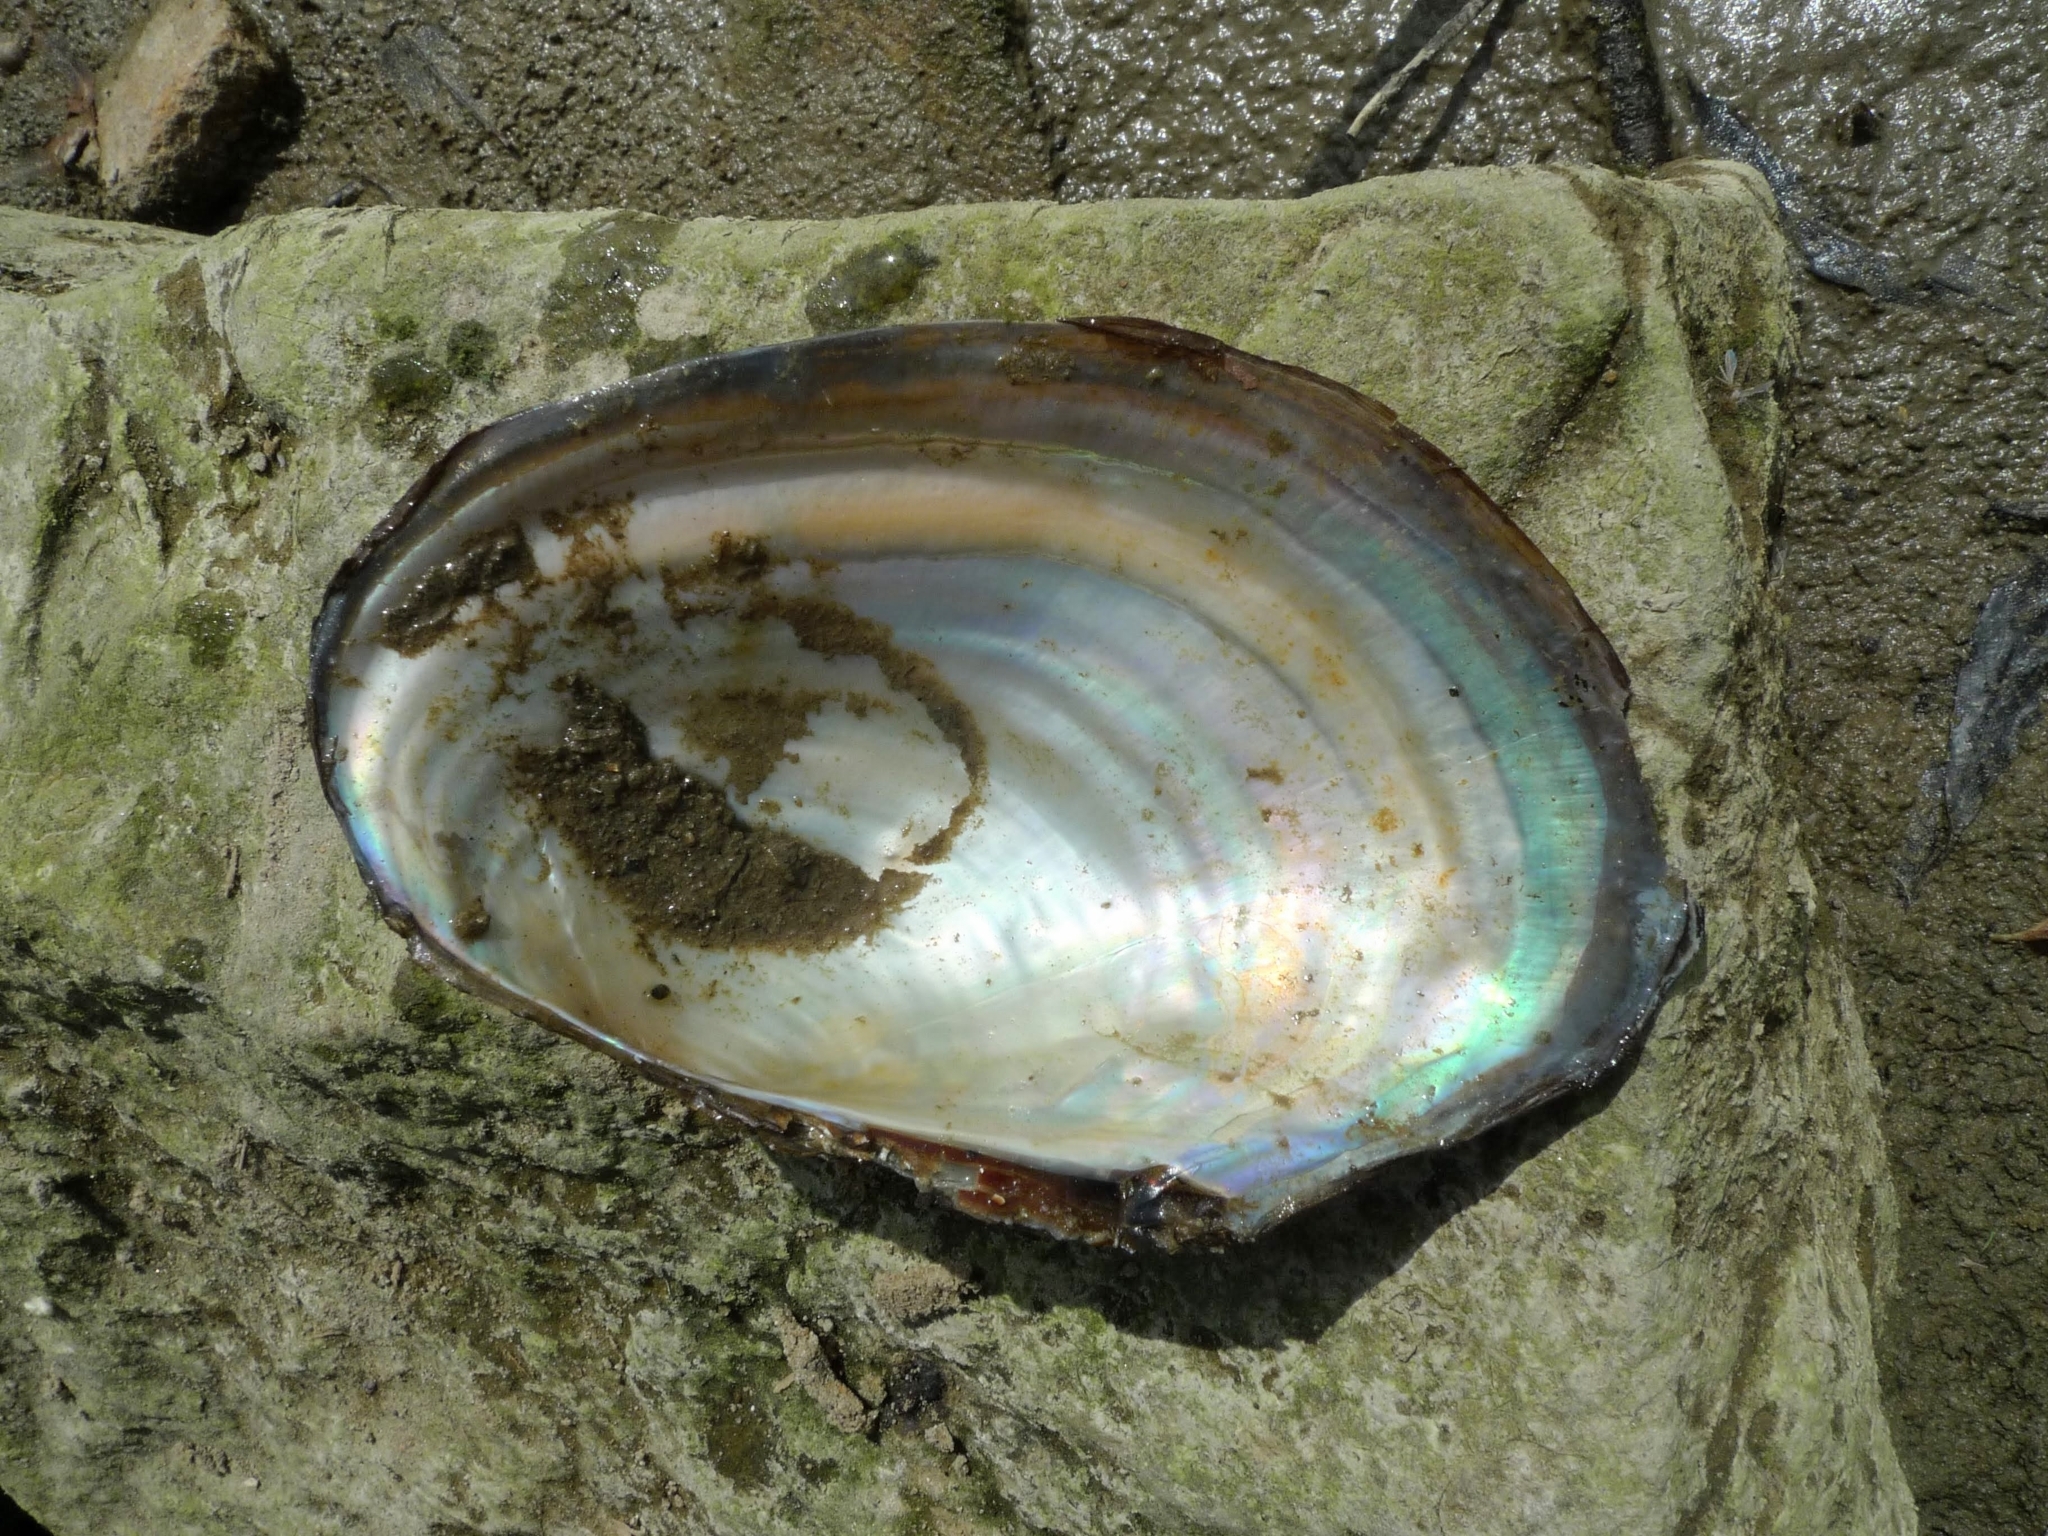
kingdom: Animalia
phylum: Mollusca
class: Bivalvia
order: Unionida
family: Unionidae
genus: Sinanodonta
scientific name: Sinanodonta woodiana
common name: Chinese pond mussel
